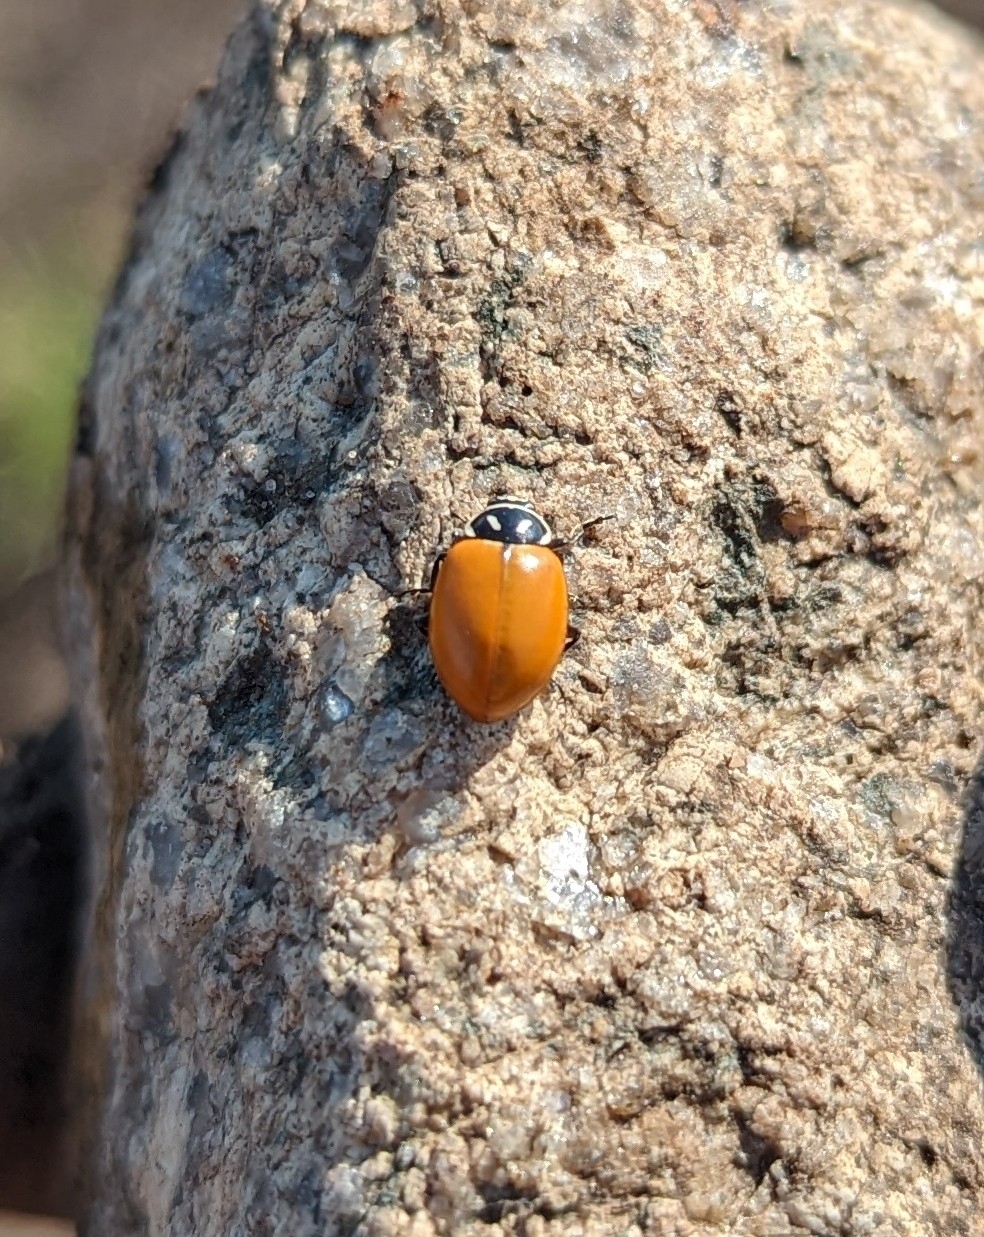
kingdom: Animalia
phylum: Arthropoda
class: Insecta
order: Coleoptera
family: Coccinellidae
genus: Hippodamia
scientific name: Hippodamia convergens
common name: Convergent lady beetle
